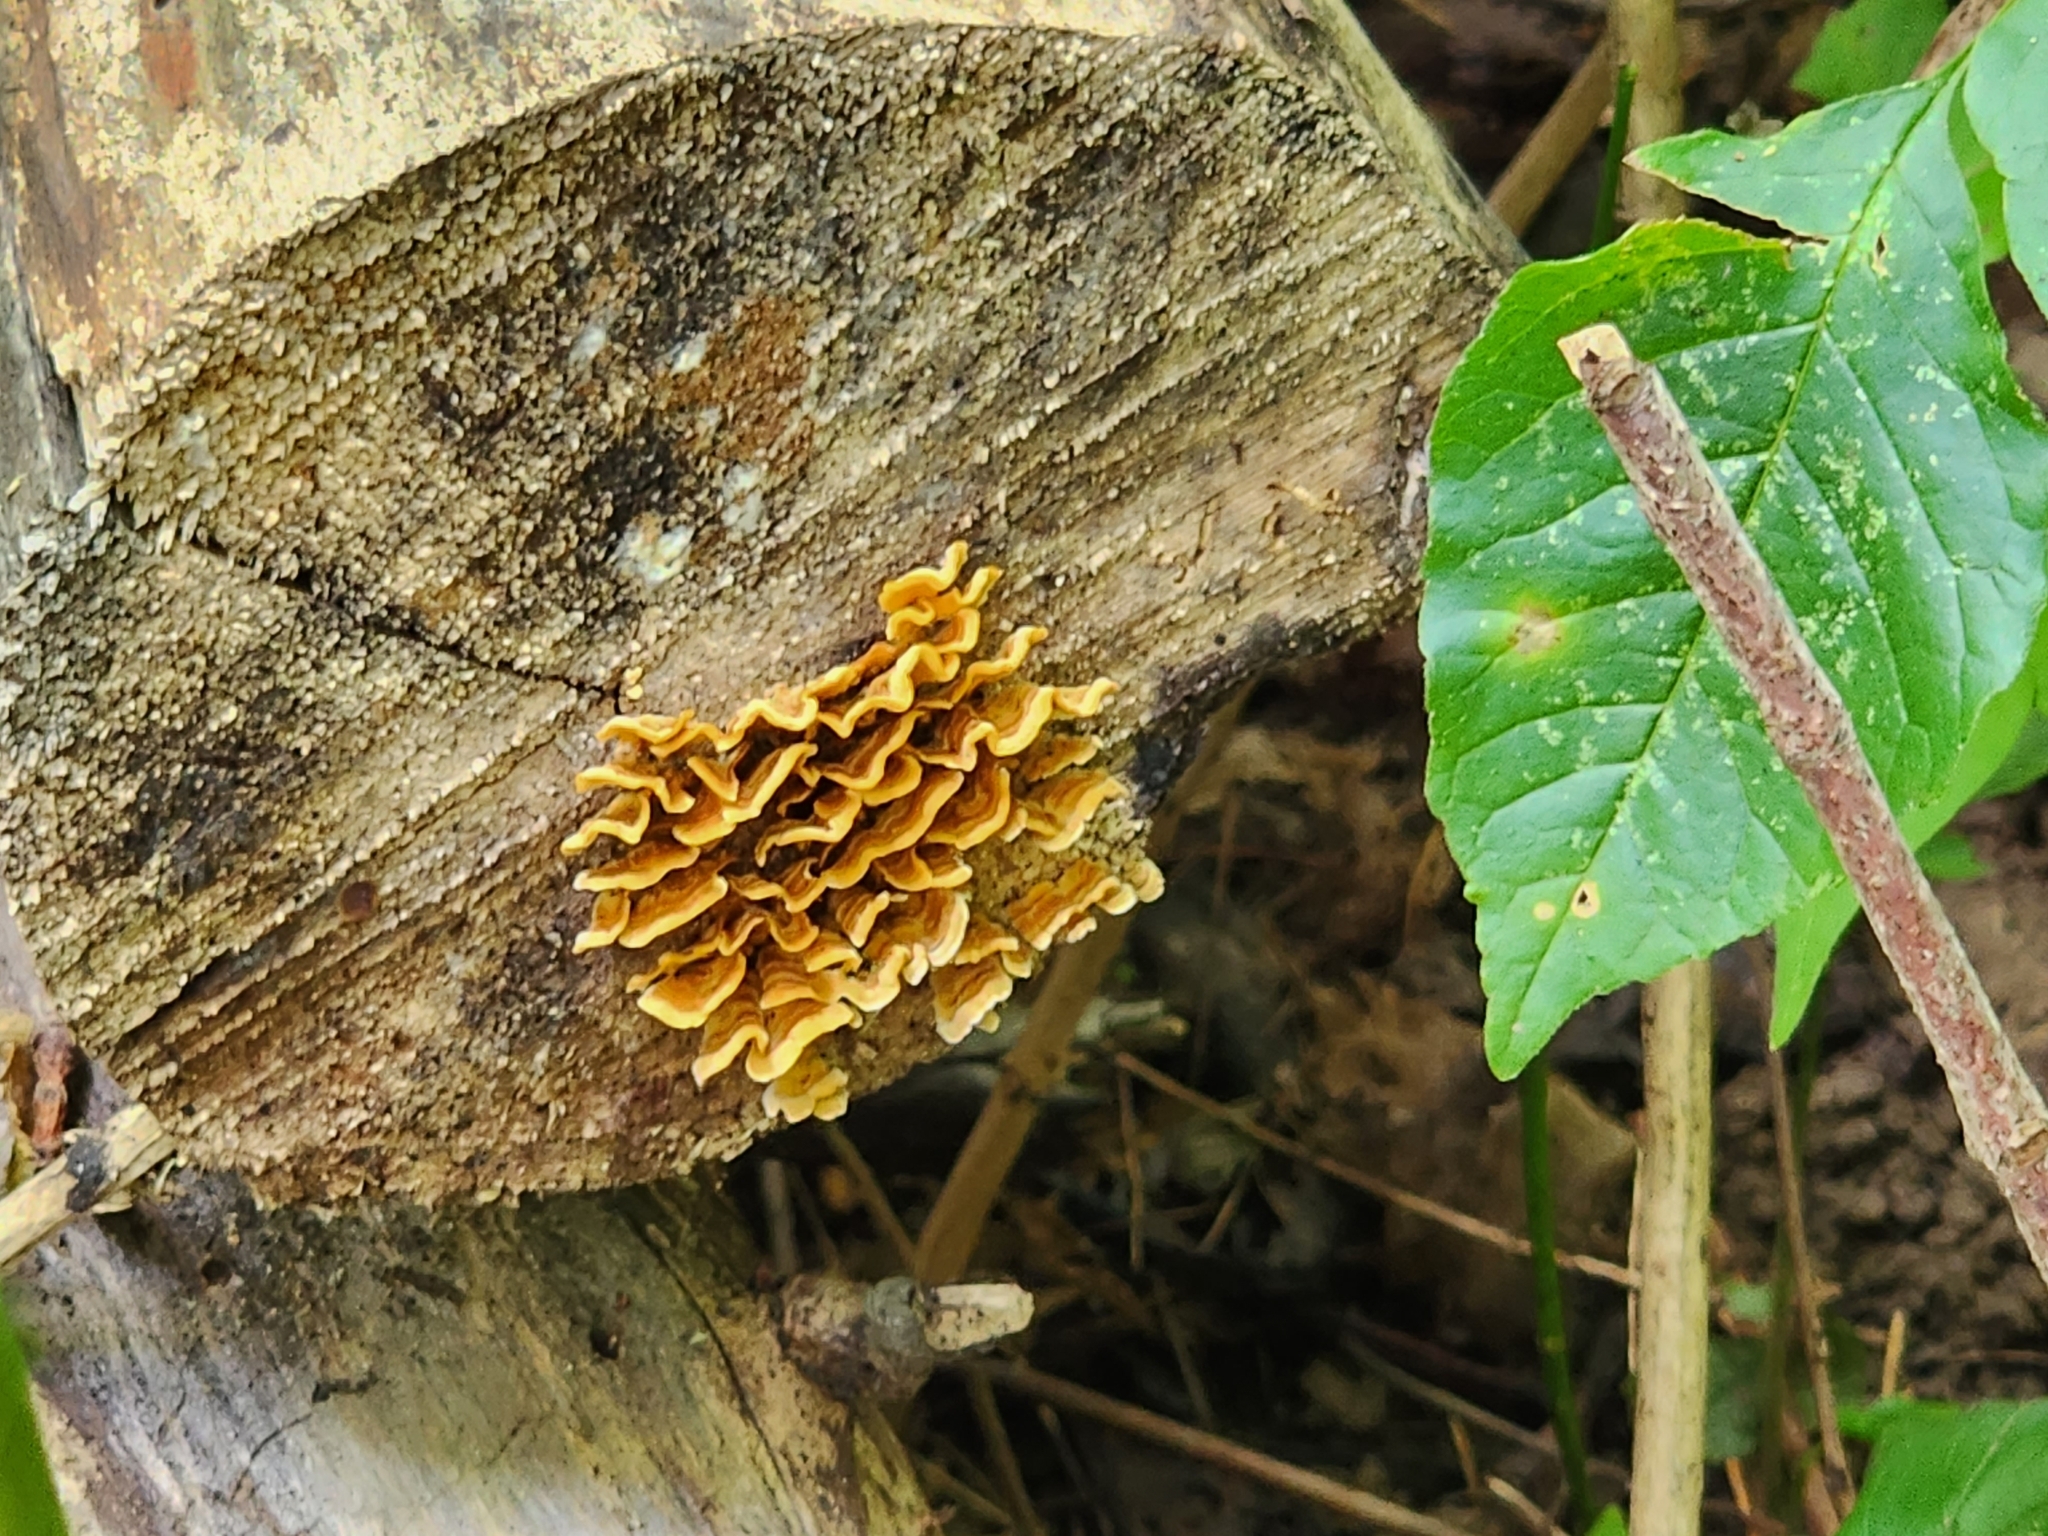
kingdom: Fungi
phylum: Basidiomycota
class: Agaricomycetes
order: Russulales
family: Stereaceae
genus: Stereum
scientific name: Stereum complicatum
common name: Crowded parchment
